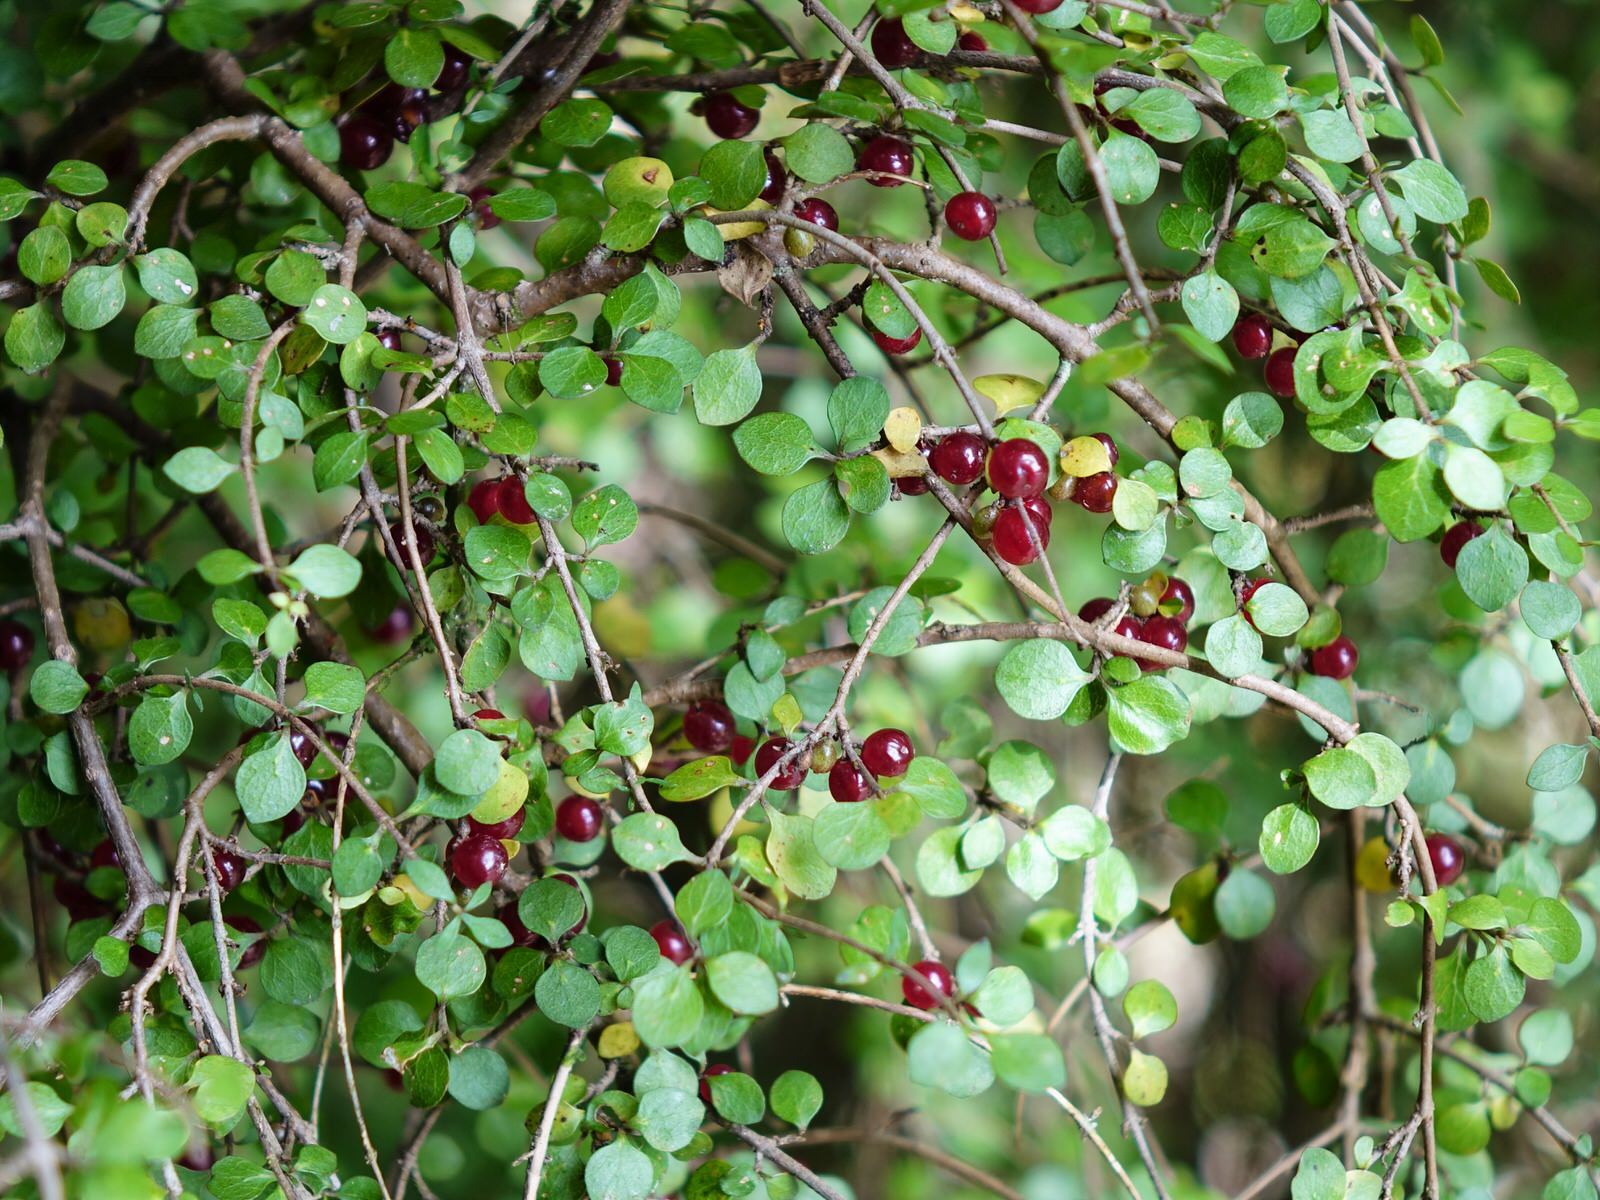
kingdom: Plantae
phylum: Tracheophyta
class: Magnoliopsida
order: Gentianales
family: Rubiaceae
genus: Coprosma
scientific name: Coprosma rhamnoides
